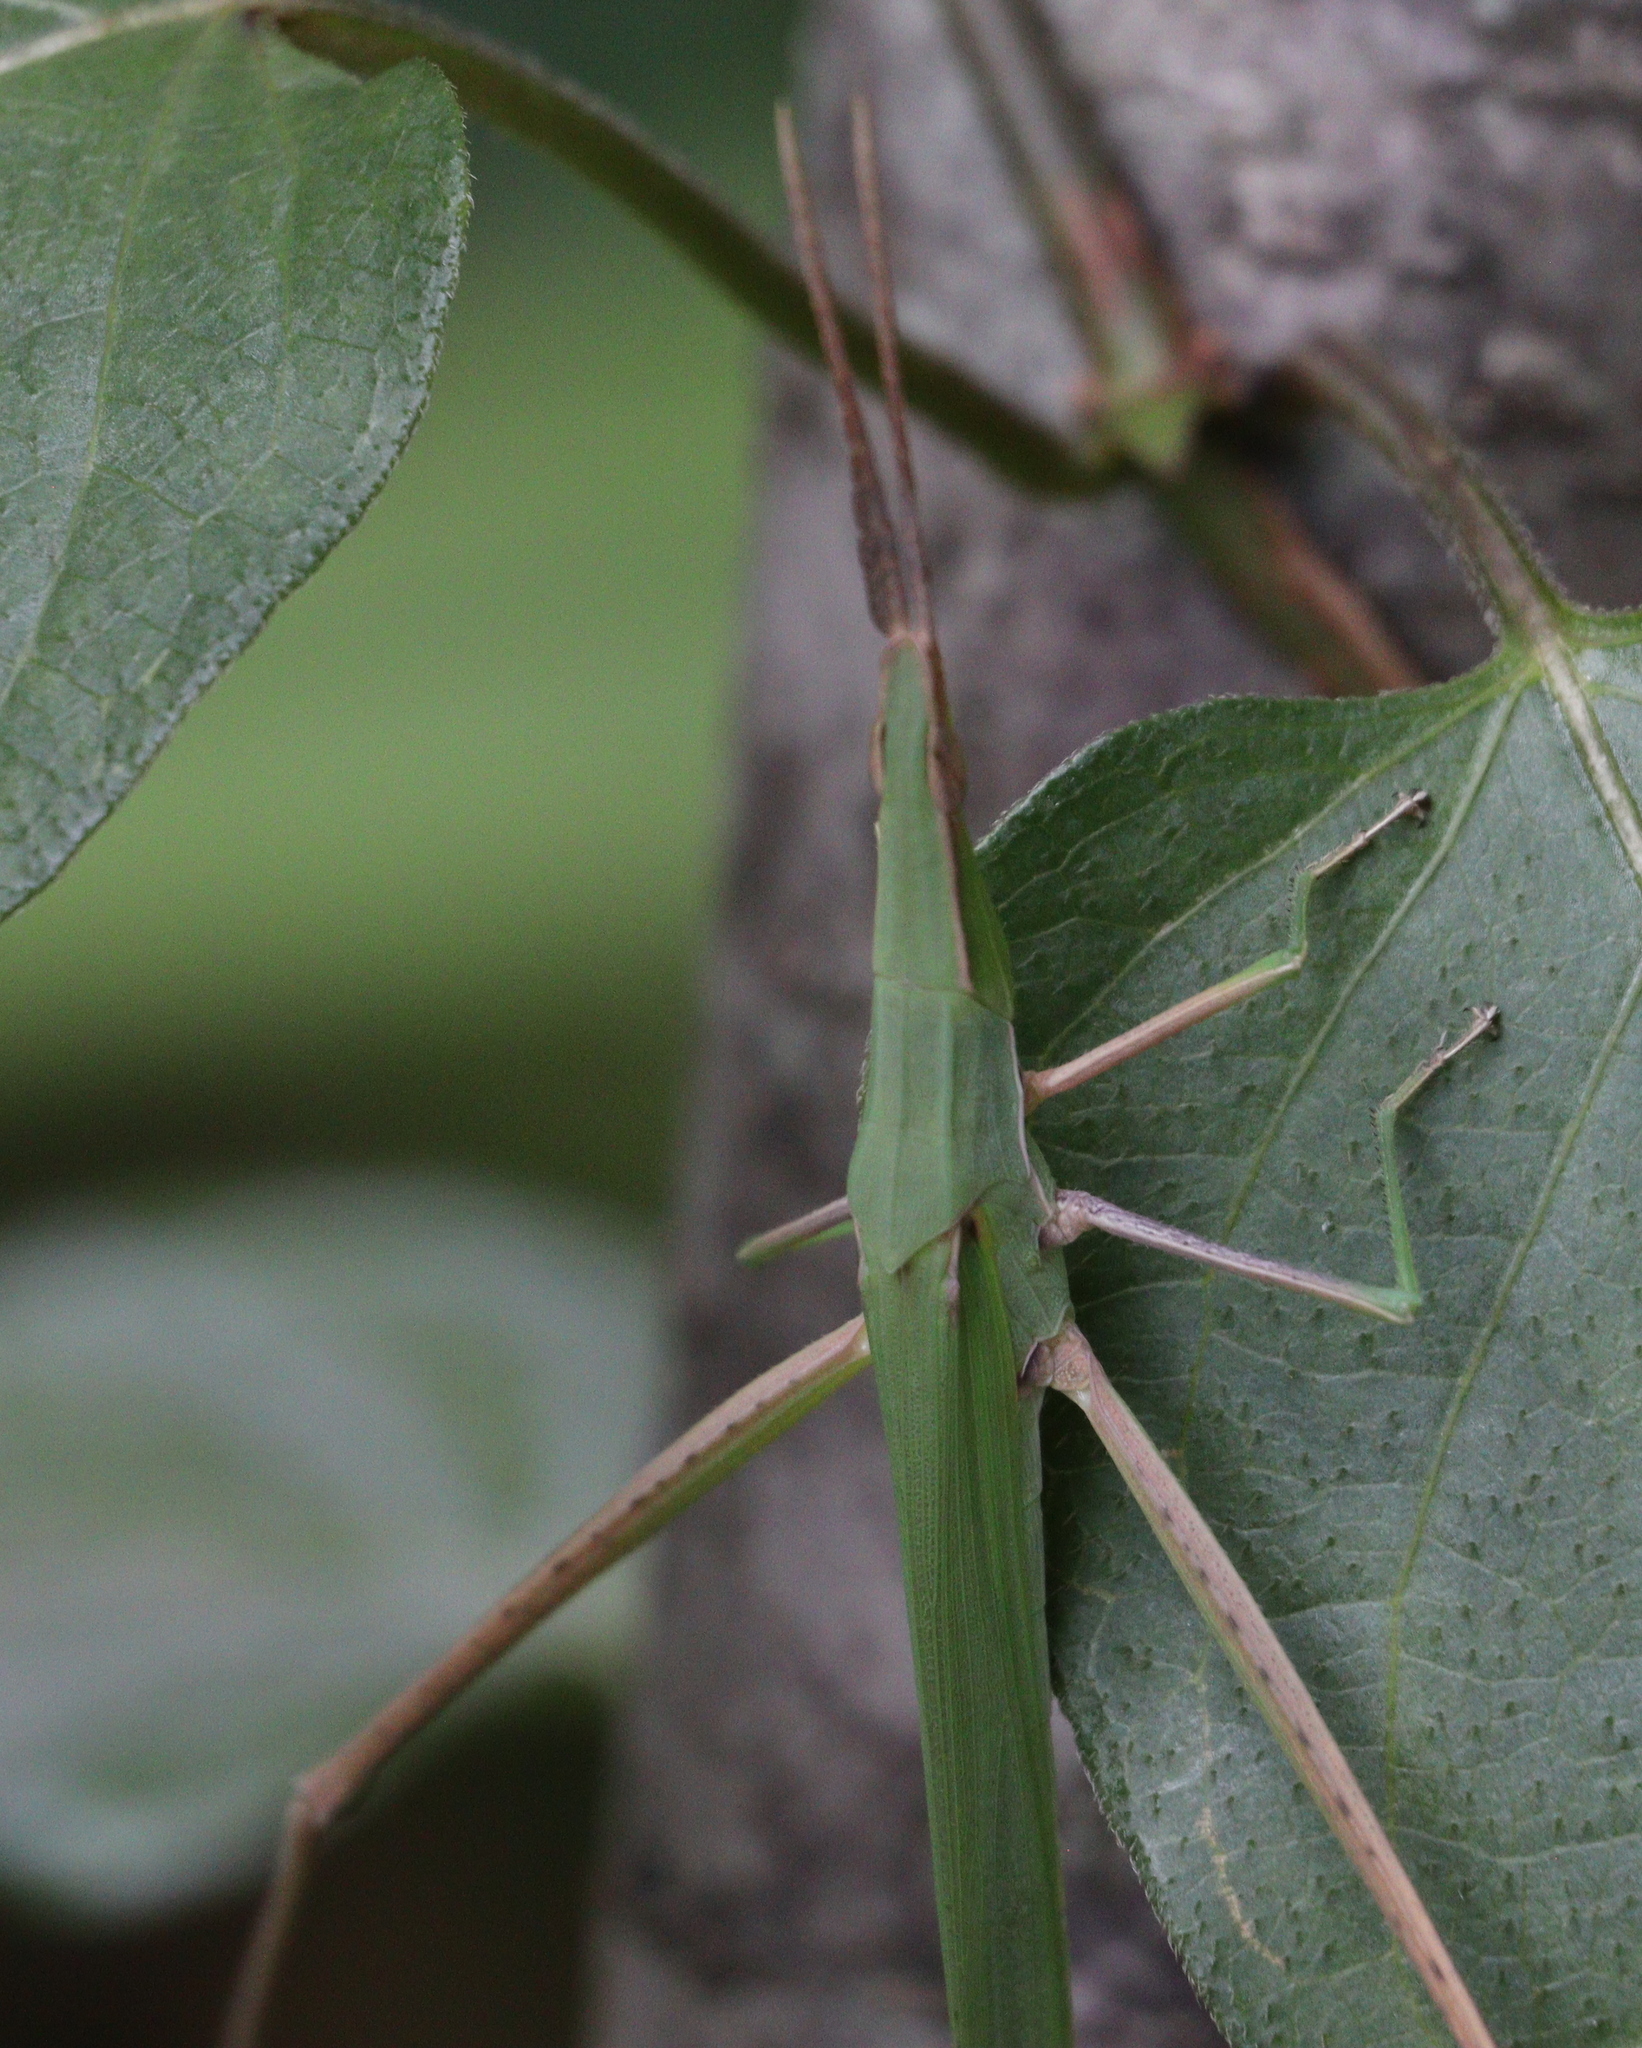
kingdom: Animalia
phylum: Arthropoda
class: Insecta
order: Orthoptera
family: Acrididae
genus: Acrida
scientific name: Acrida cinerea
